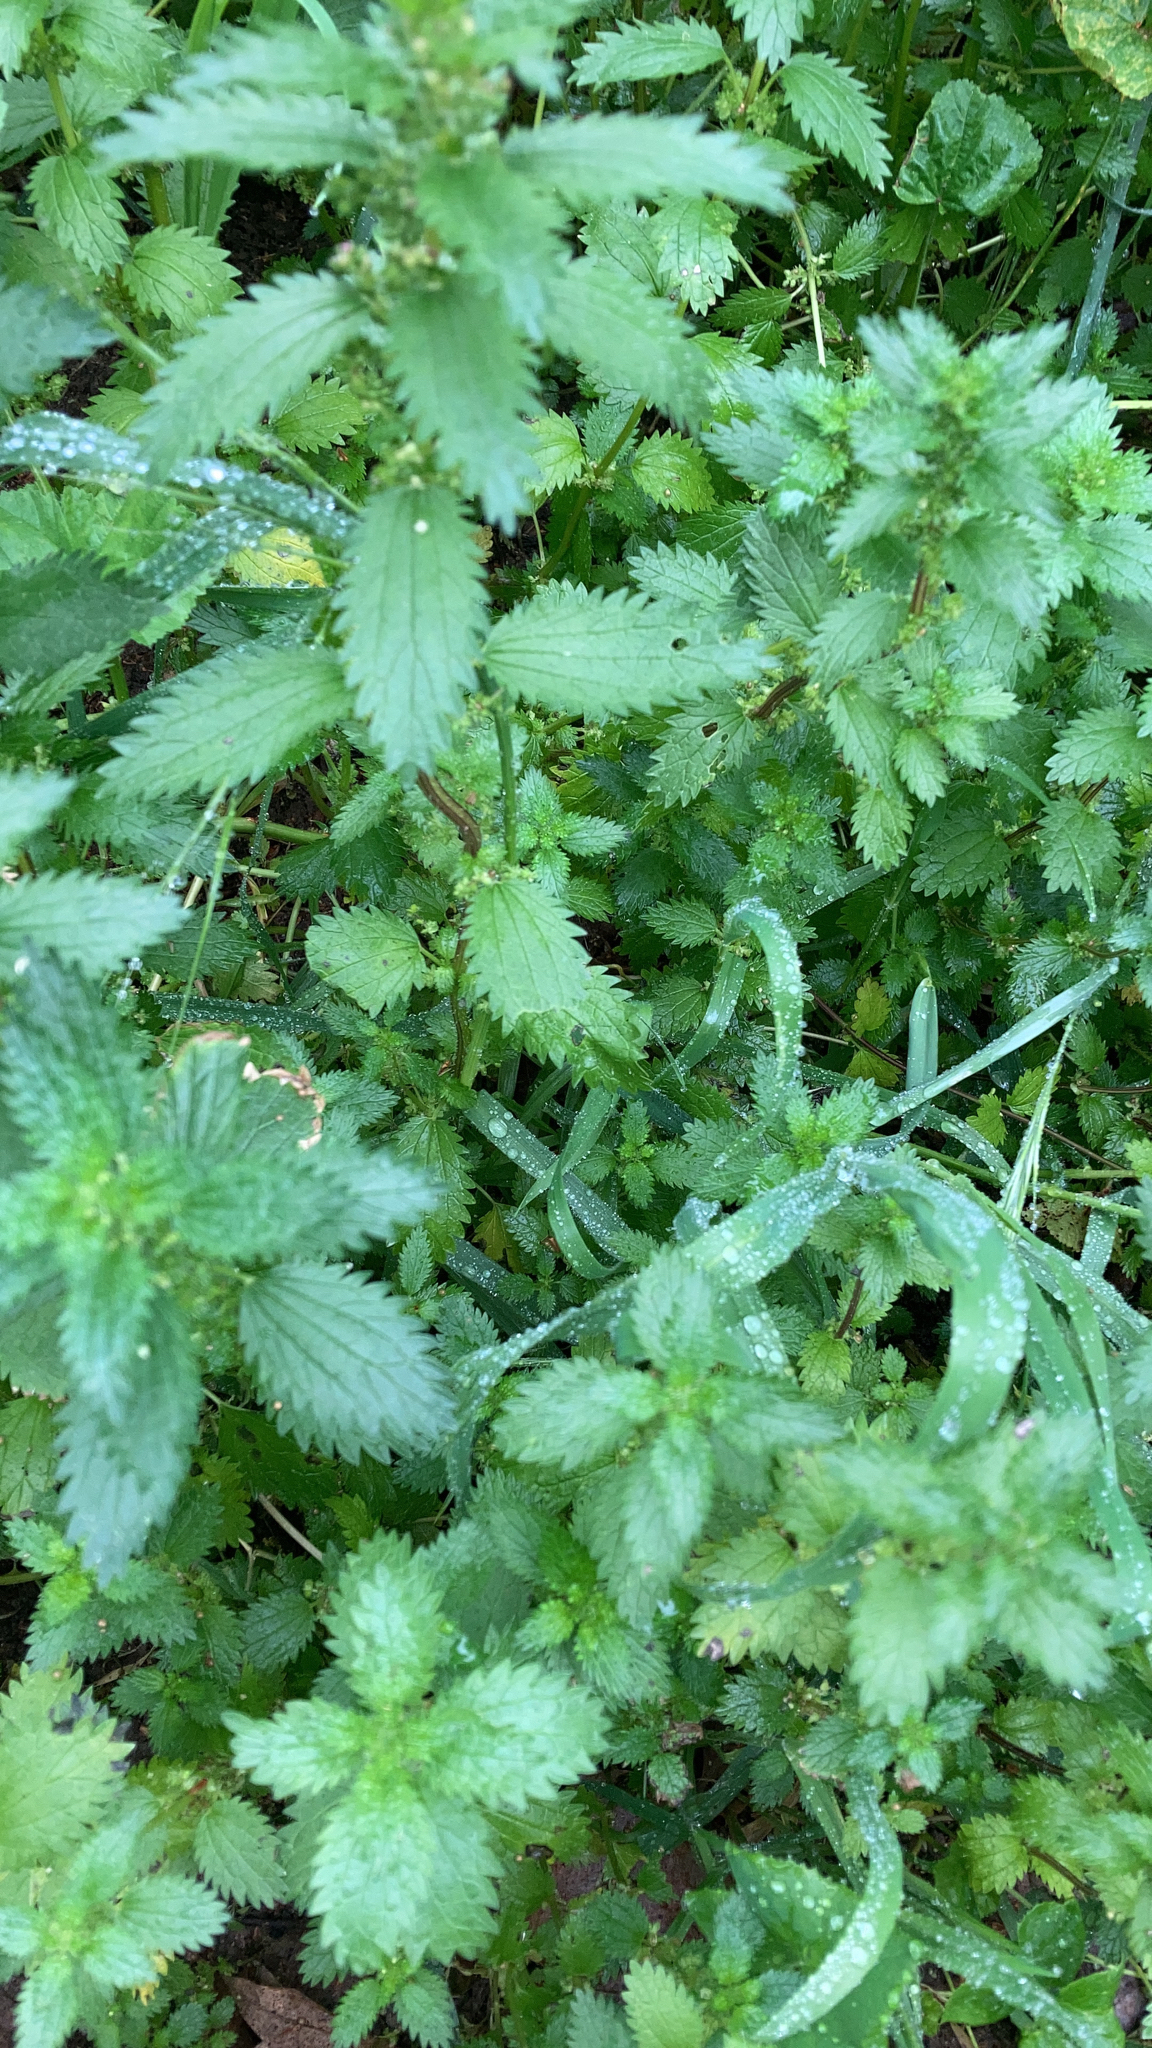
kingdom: Plantae
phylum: Tracheophyta
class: Magnoliopsida
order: Rosales
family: Urticaceae
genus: Urtica
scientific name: Urtica urens
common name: Dwarf nettle
